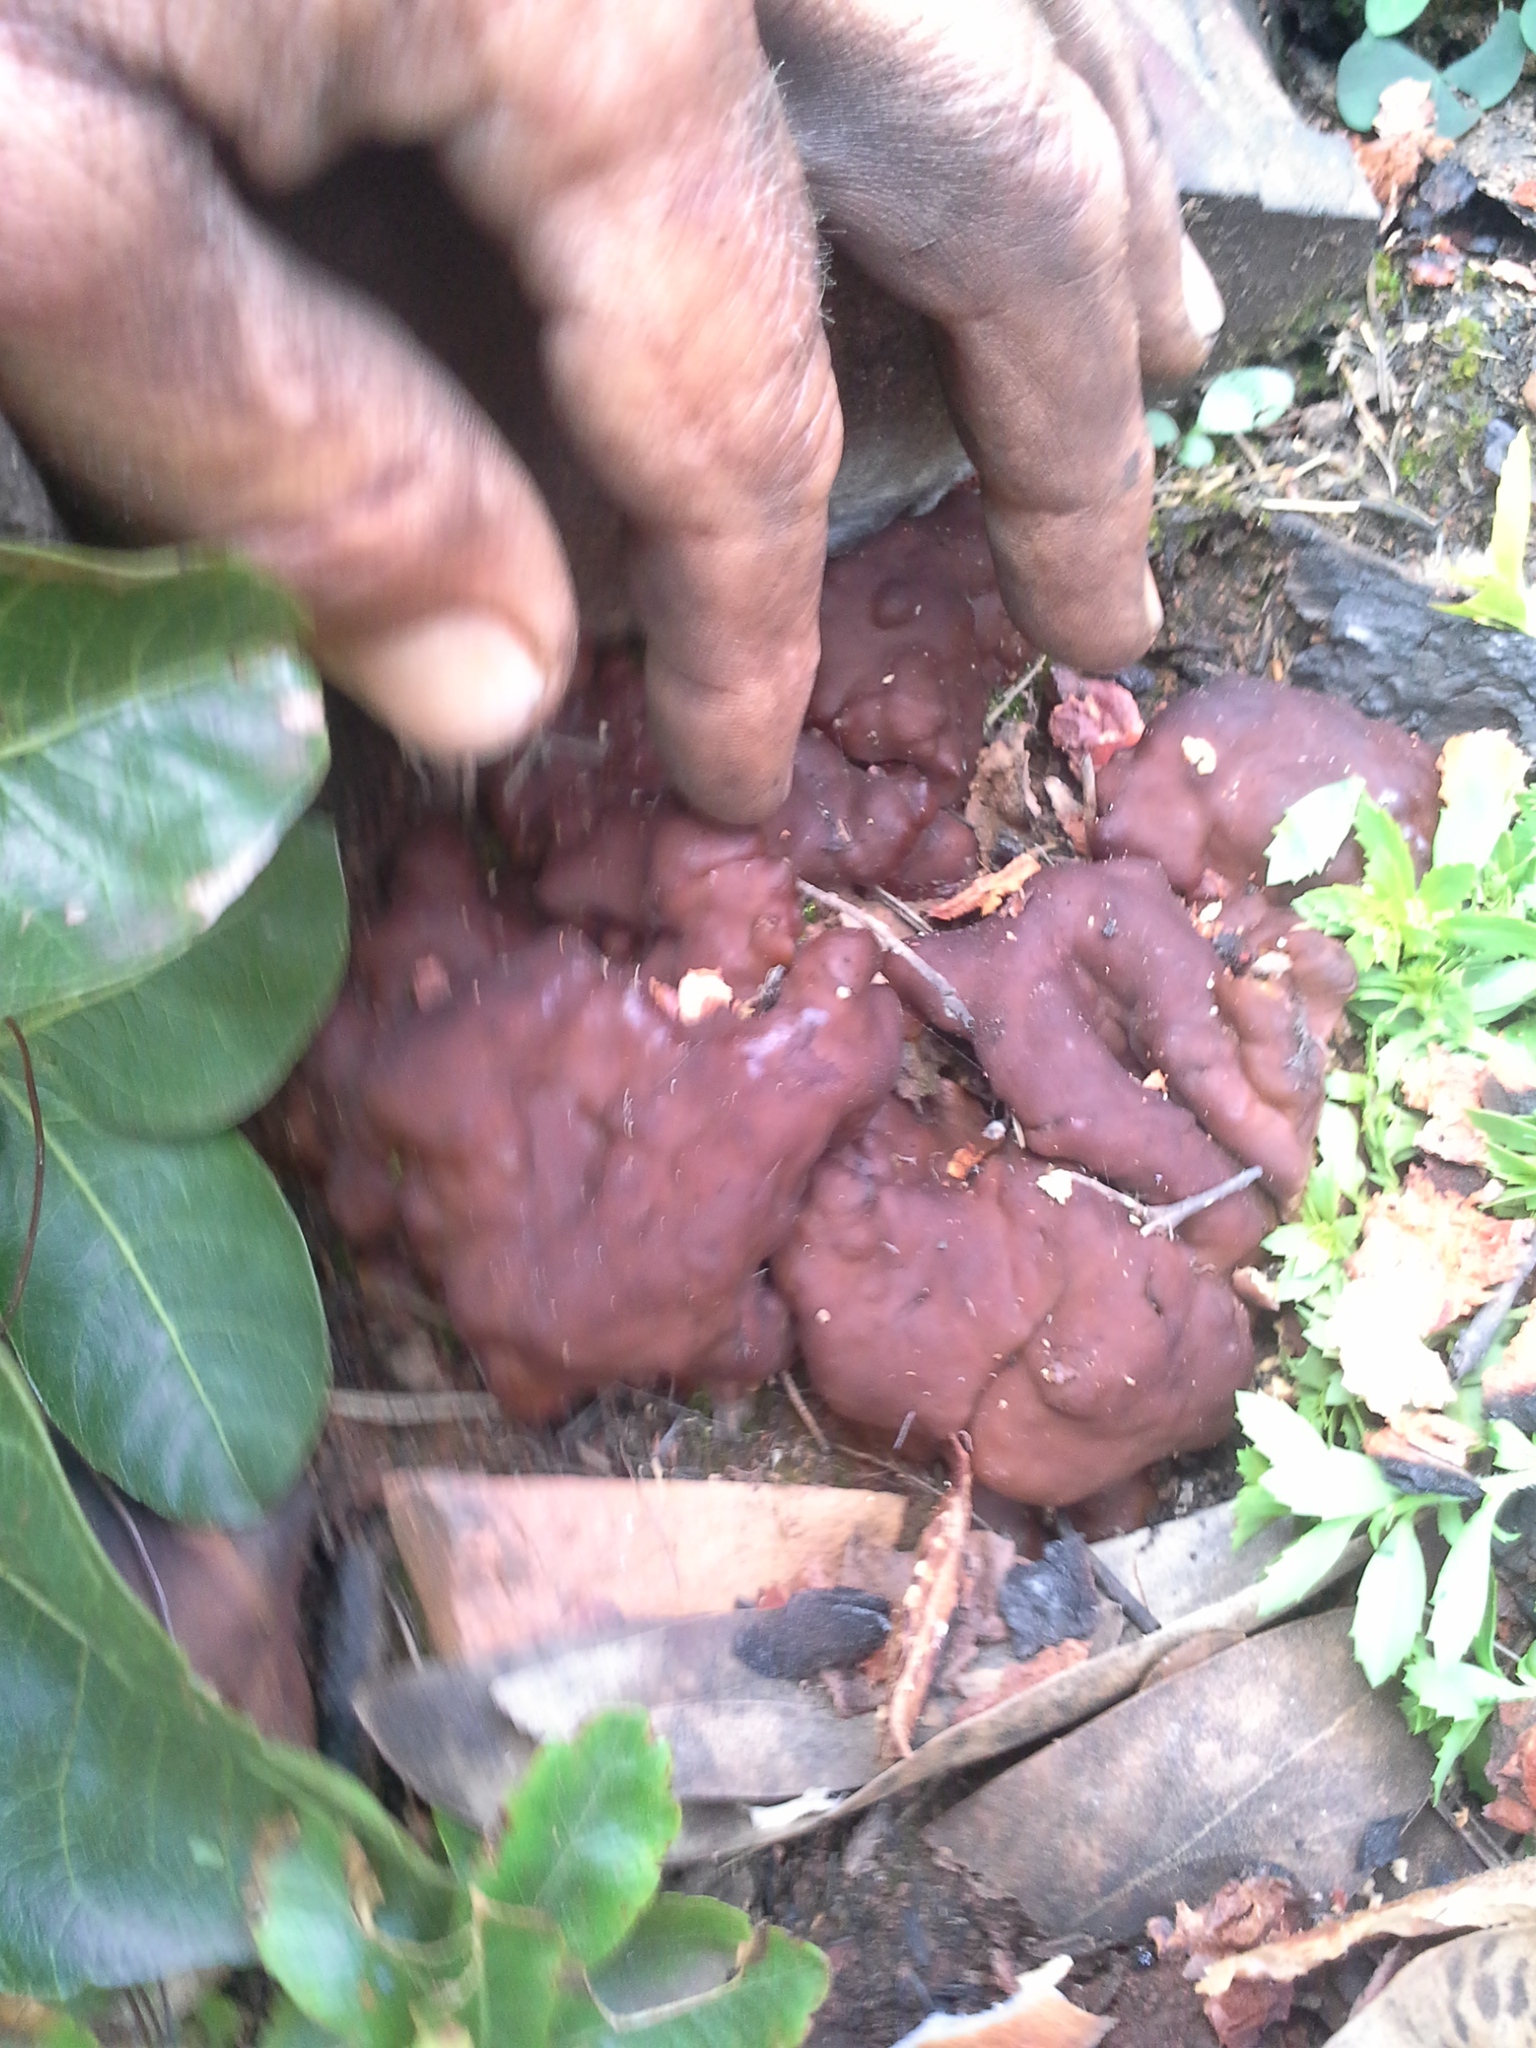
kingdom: Fungi
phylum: Ascomycota
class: Pezizomycetes
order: Pezizales
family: Rhizinaceae
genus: Rhizina
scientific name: Rhizina undulata
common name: Pine firefungus
